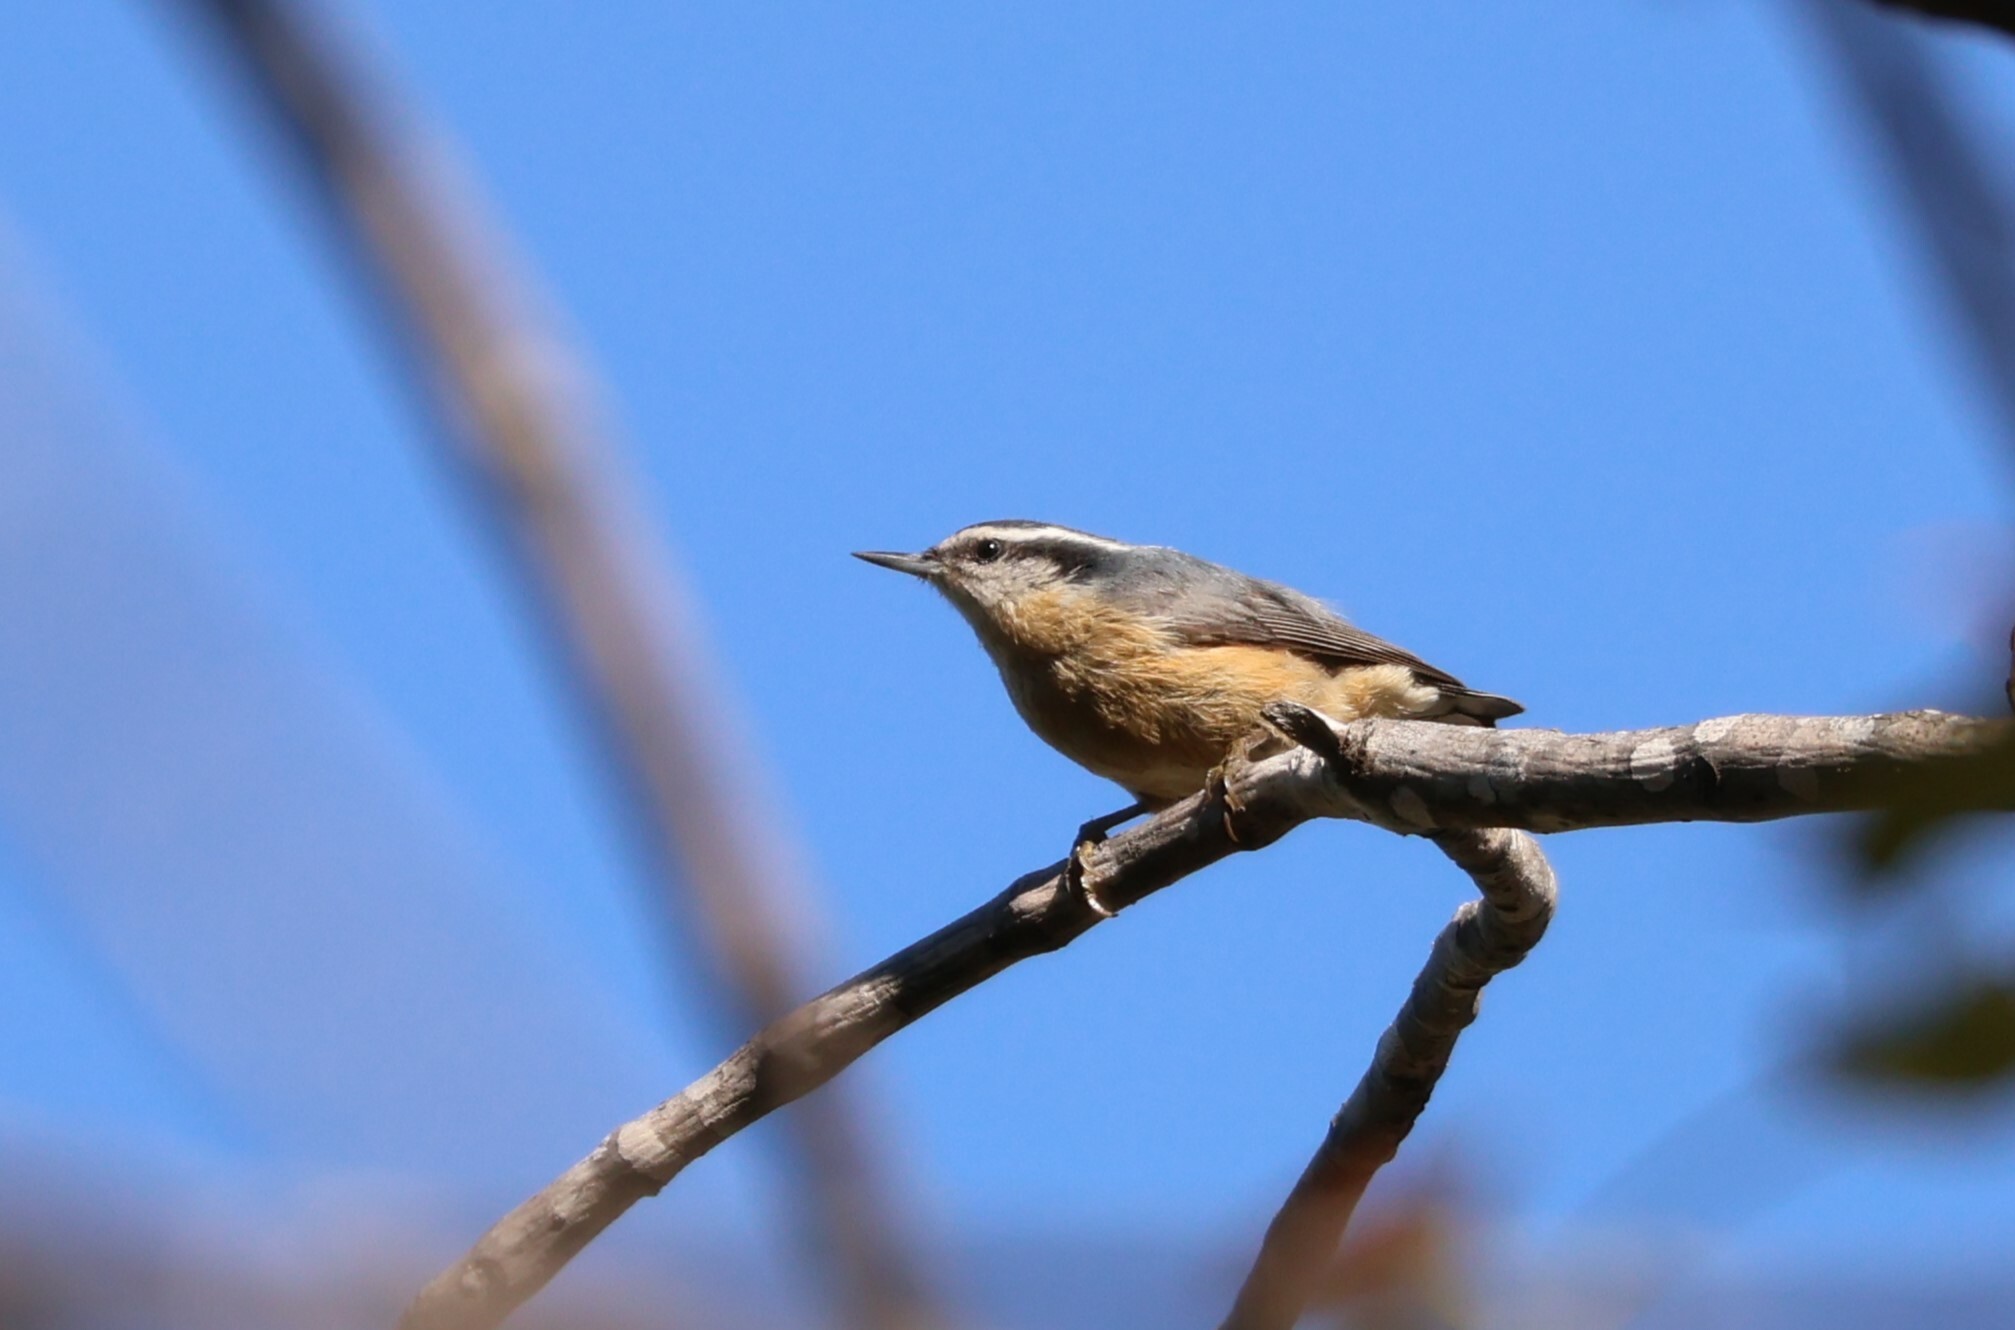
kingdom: Animalia
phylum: Chordata
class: Aves
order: Passeriformes
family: Sittidae
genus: Sitta
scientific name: Sitta canadensis
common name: Red-breasted nuthatch
